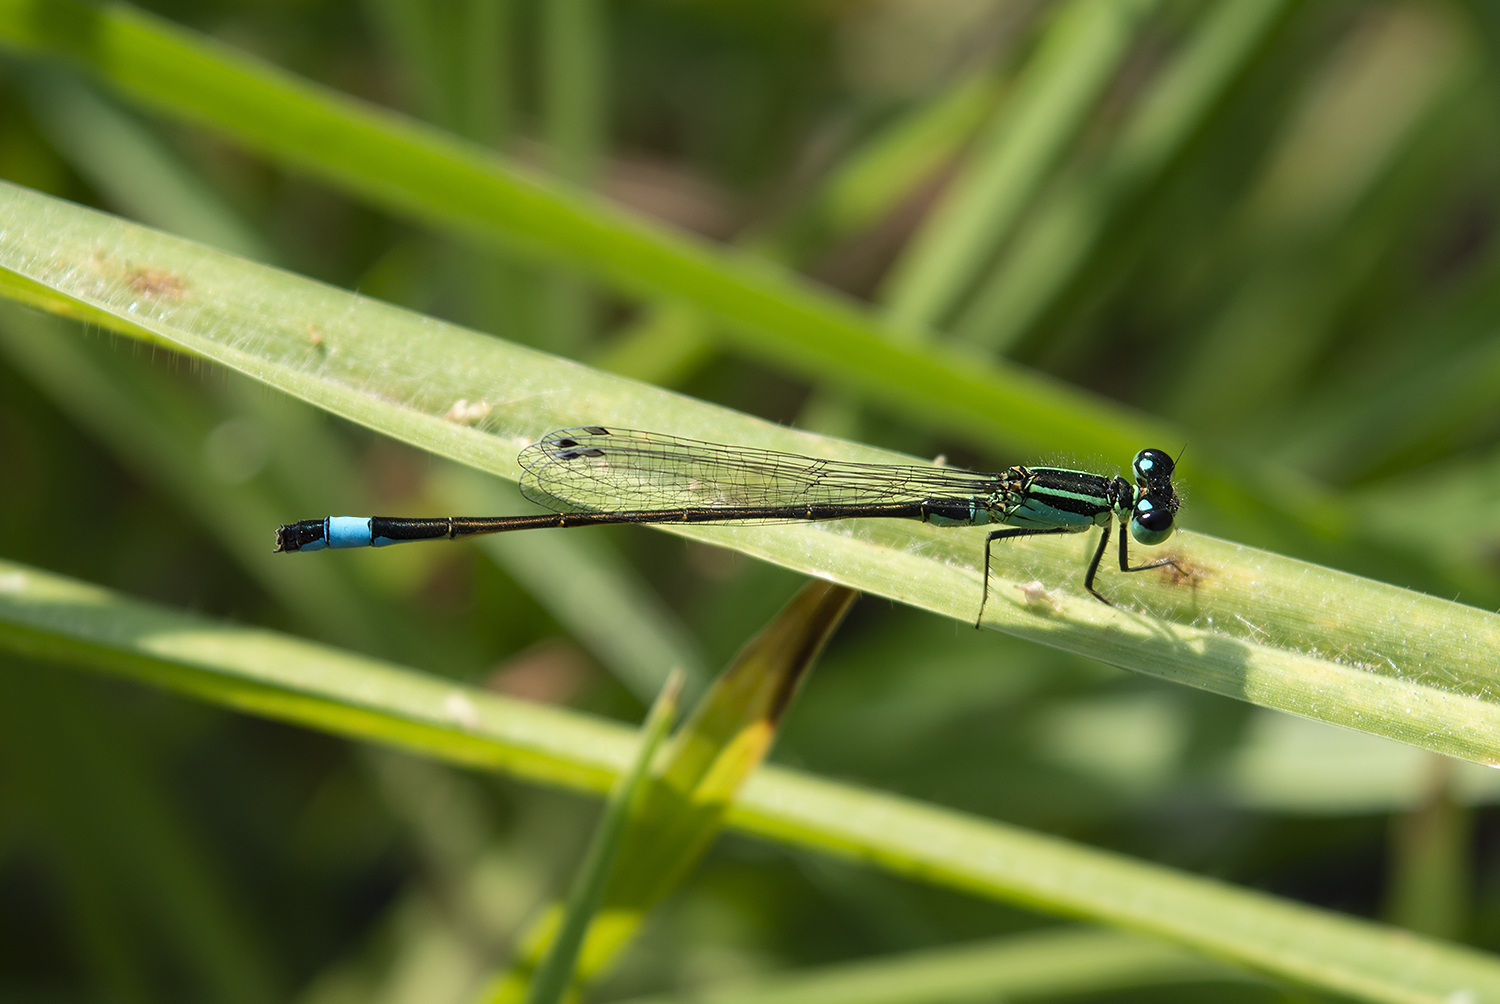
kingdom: Animalia
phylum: Arthropoda
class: Insecta
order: Odonata
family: Coenagrionidae
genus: Ischnura
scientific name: Ischnura elegans
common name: Blue-tailed damselfly
